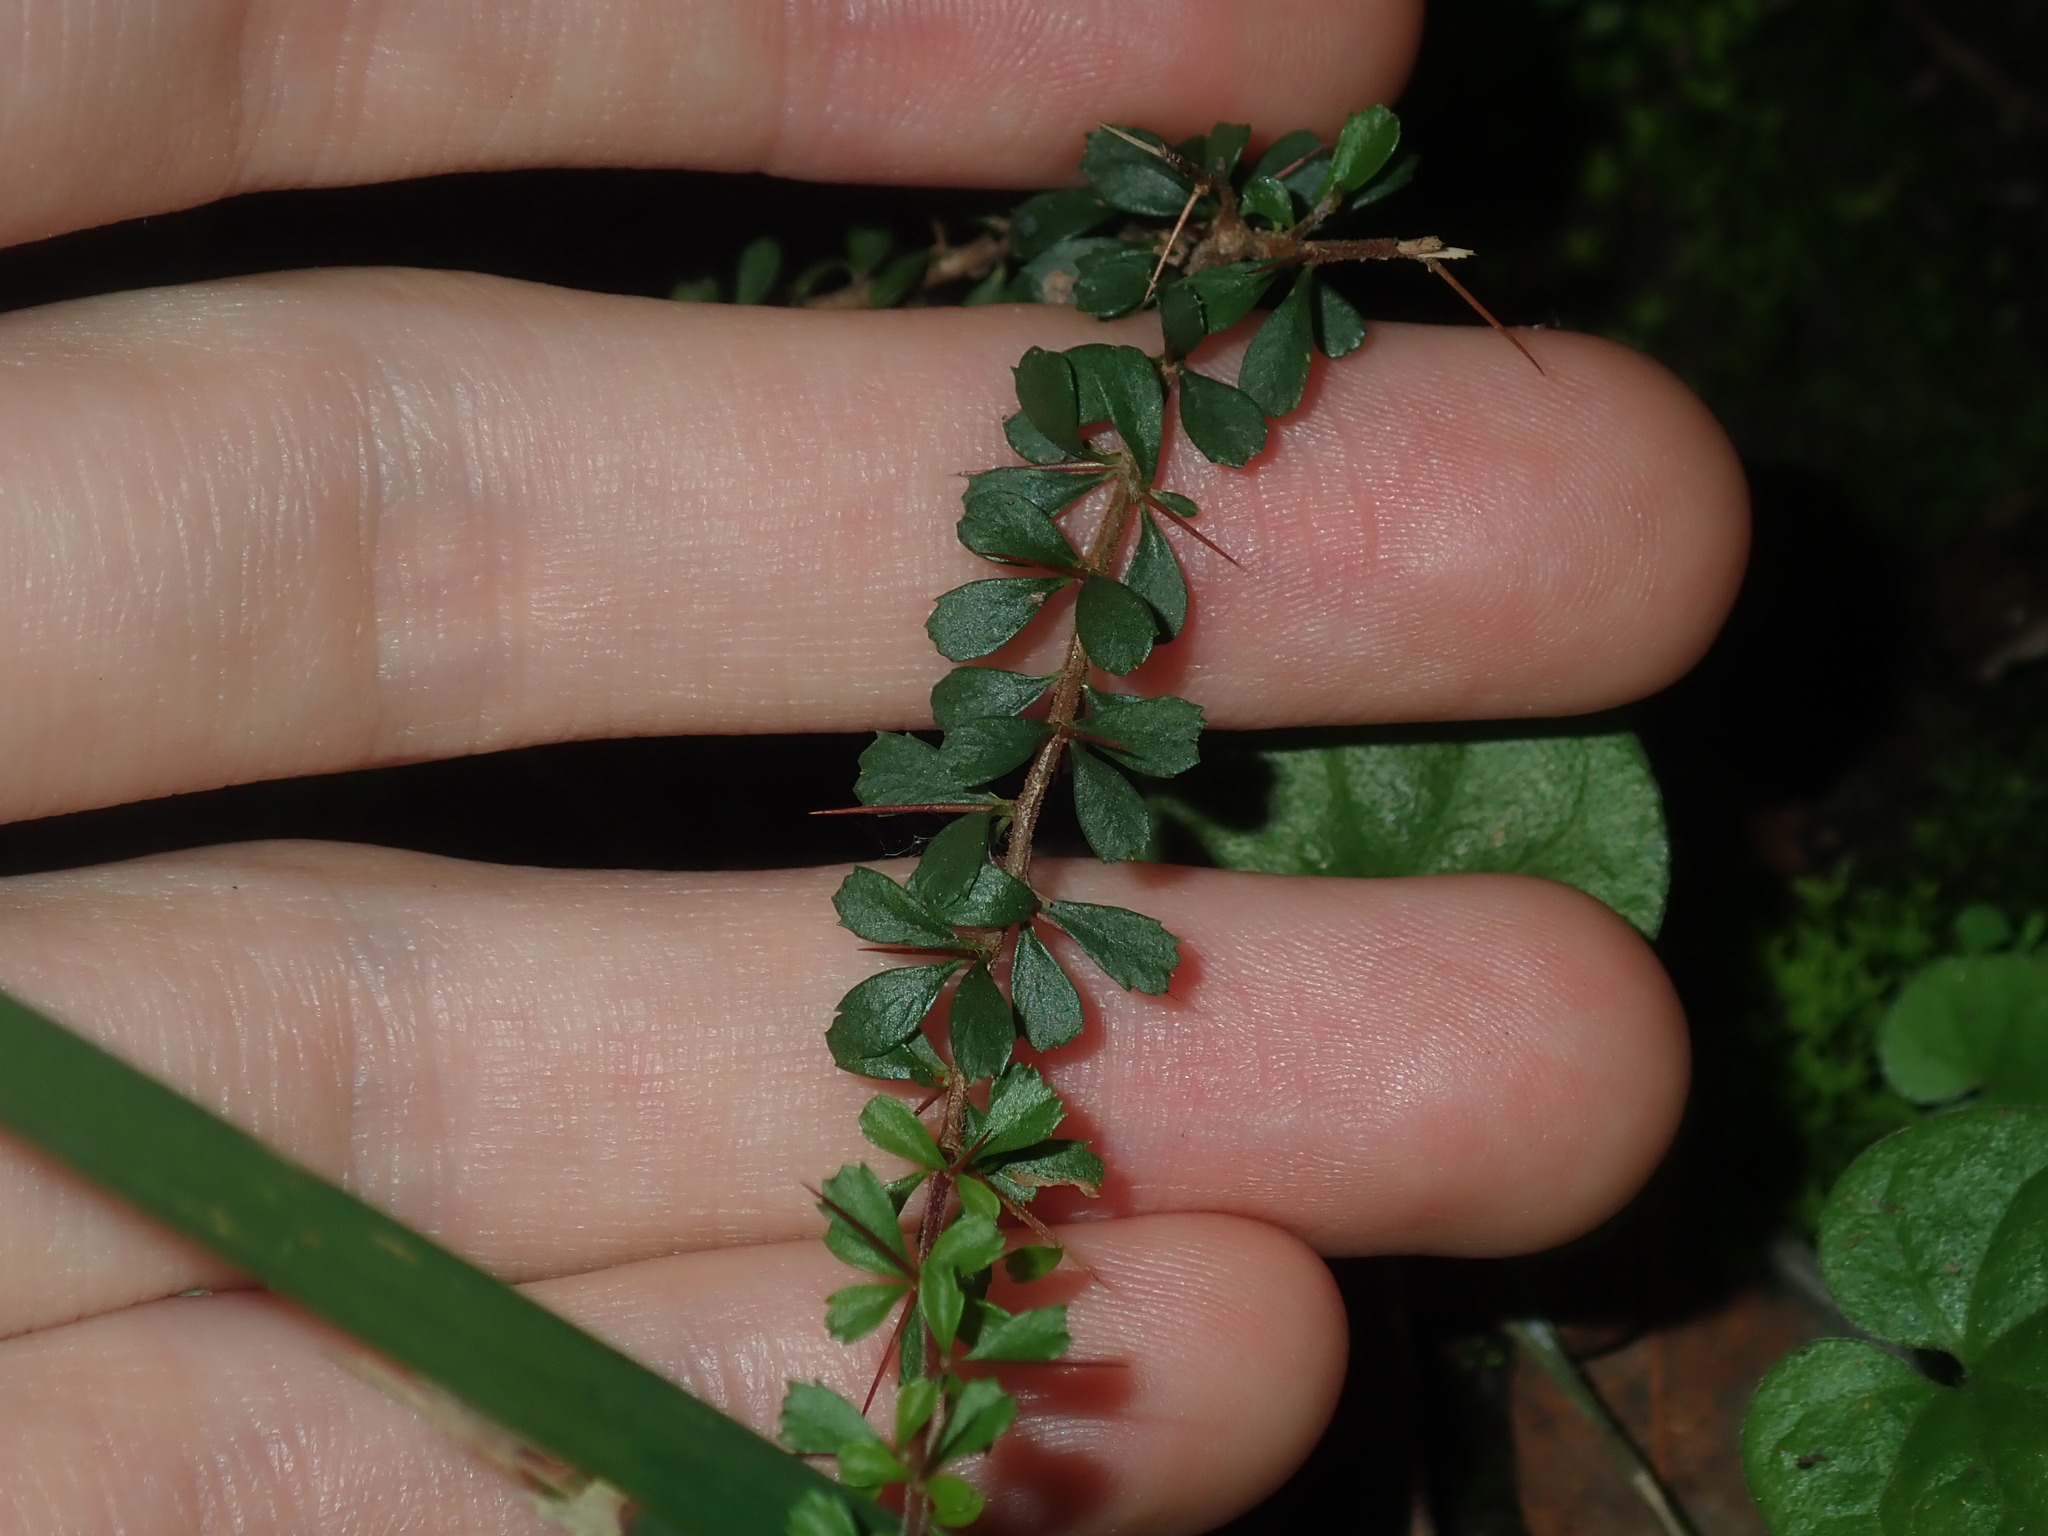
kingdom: Plantae
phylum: Tracheophyta
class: Magnoliopsida
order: Apiales
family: Pittosporaceae
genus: Bursaria
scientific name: Bursaria spinosa
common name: Australian blackthorn
